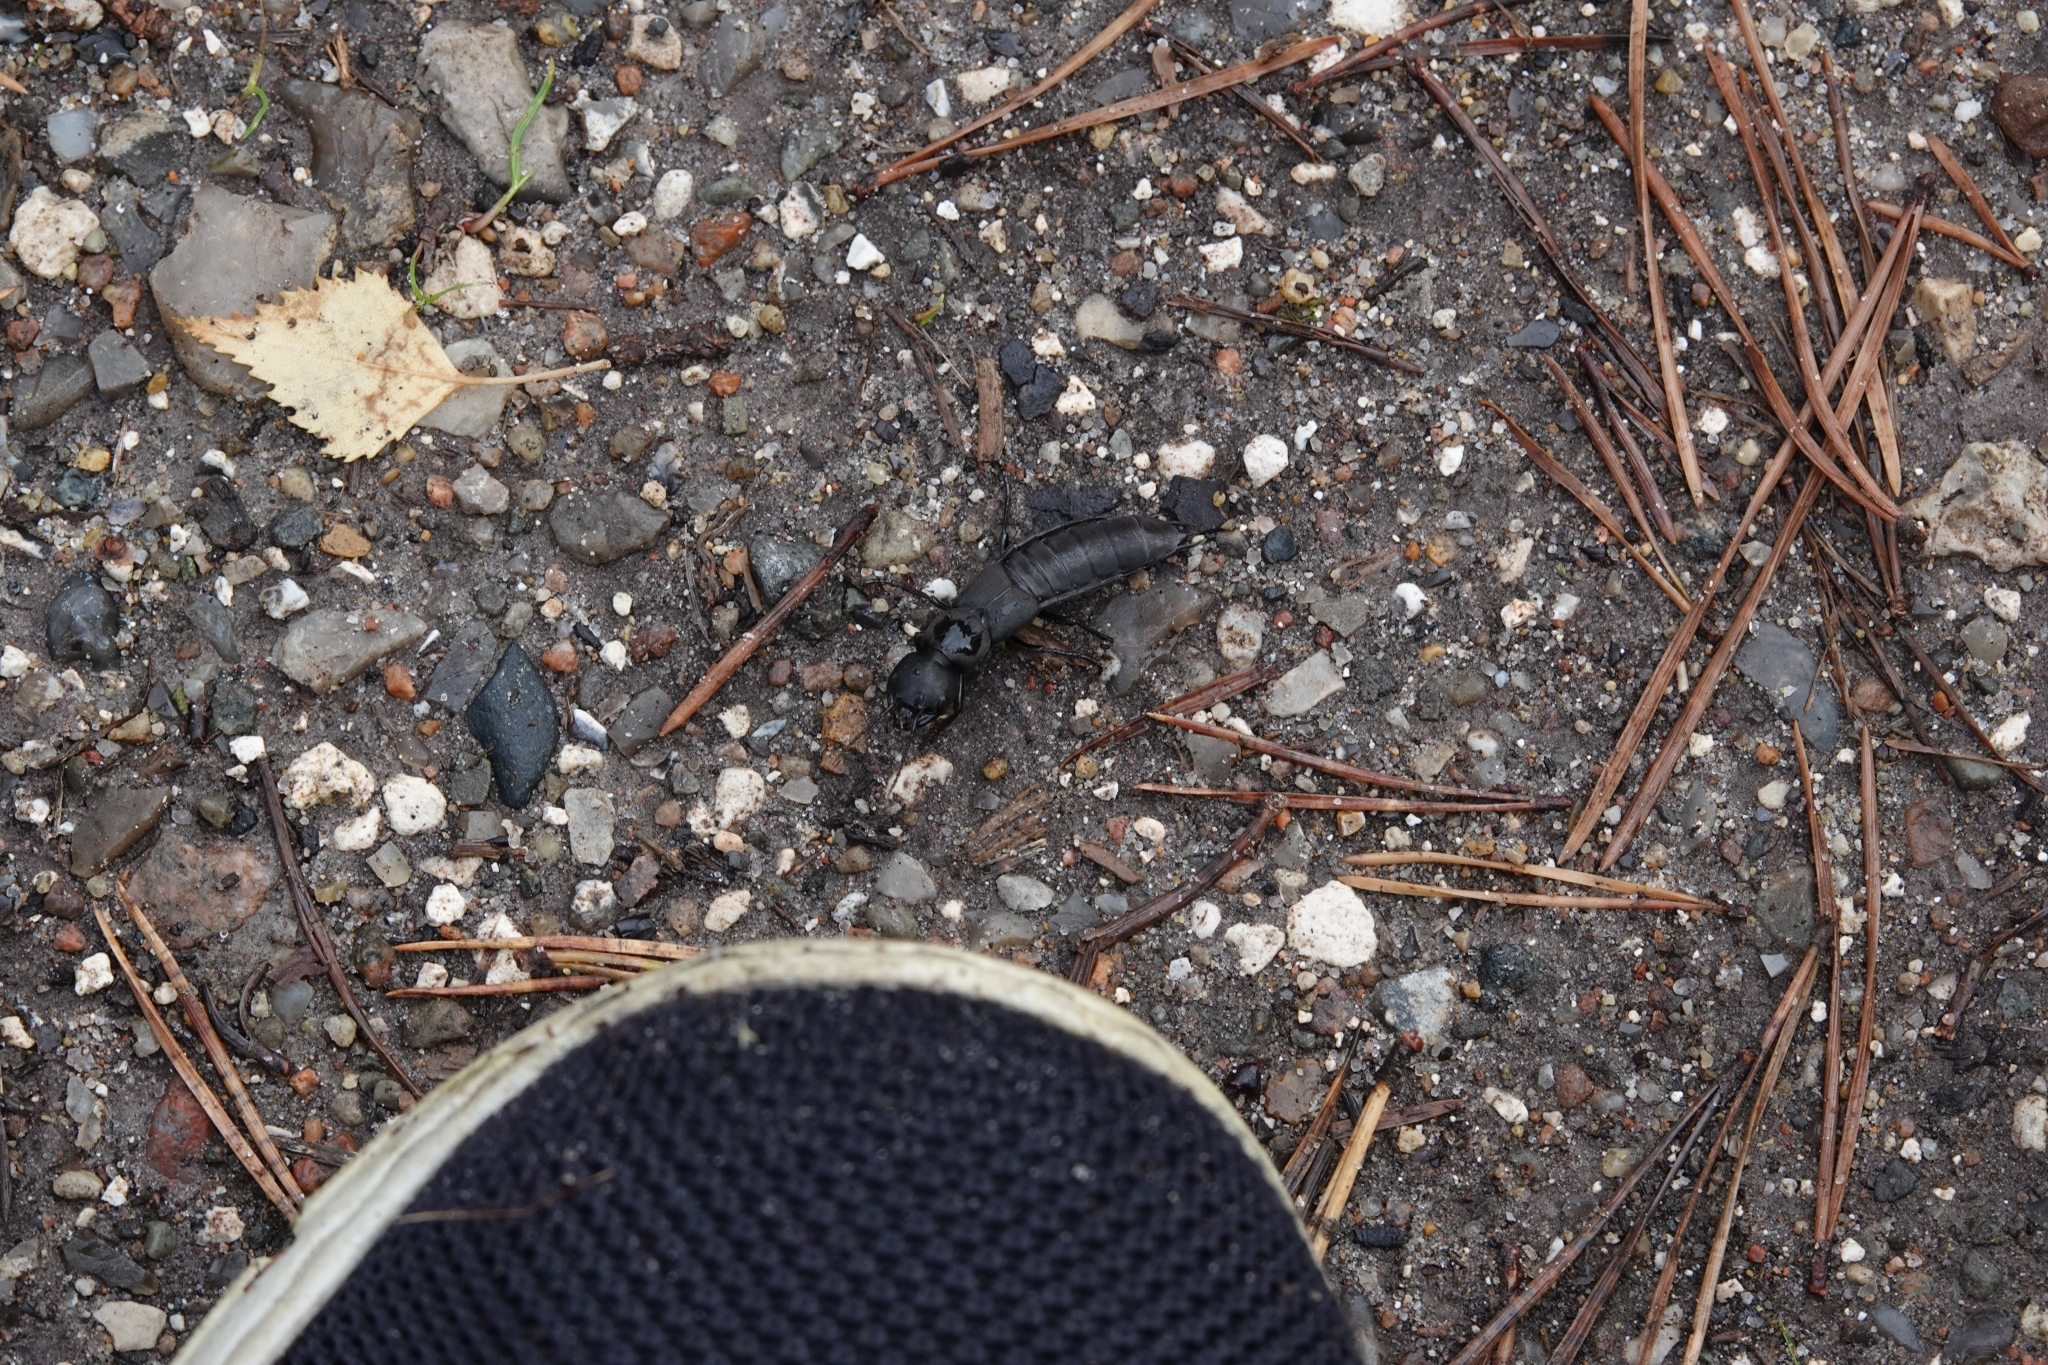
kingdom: Animalia
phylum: Arthropoda
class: Insecta
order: Coleoptera
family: Staphylinidae
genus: Ocypus
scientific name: Ocypus olens
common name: Devil's coach-horse
